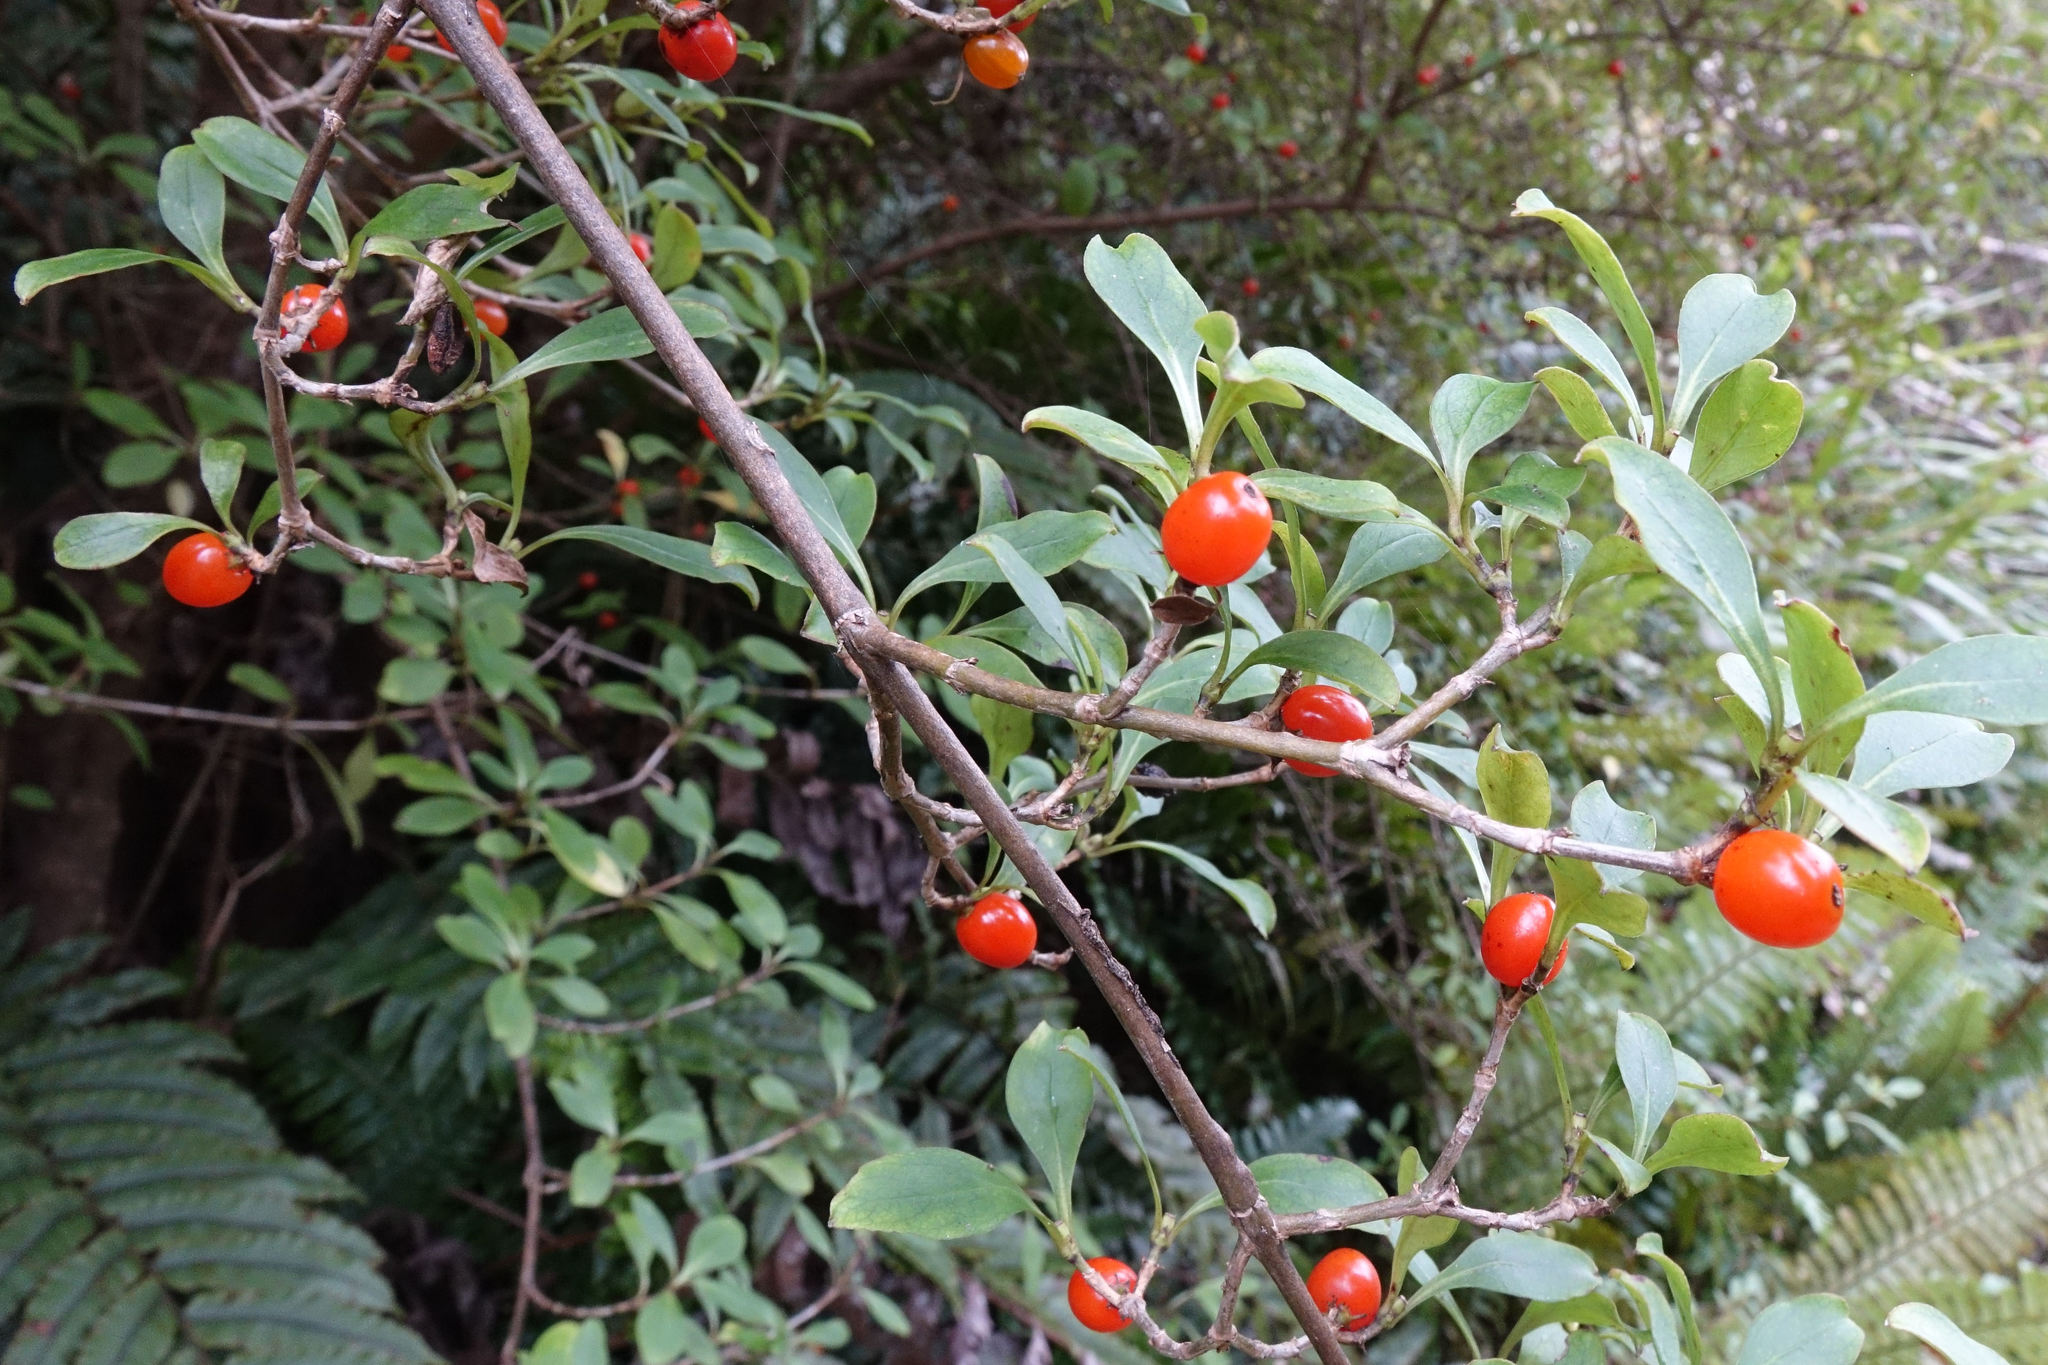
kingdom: Plantae
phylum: Tracheophyta
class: Magnoliopsida
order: Gentianales
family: Rubiaceae
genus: Coprosma
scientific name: Coprosma foetidissima
